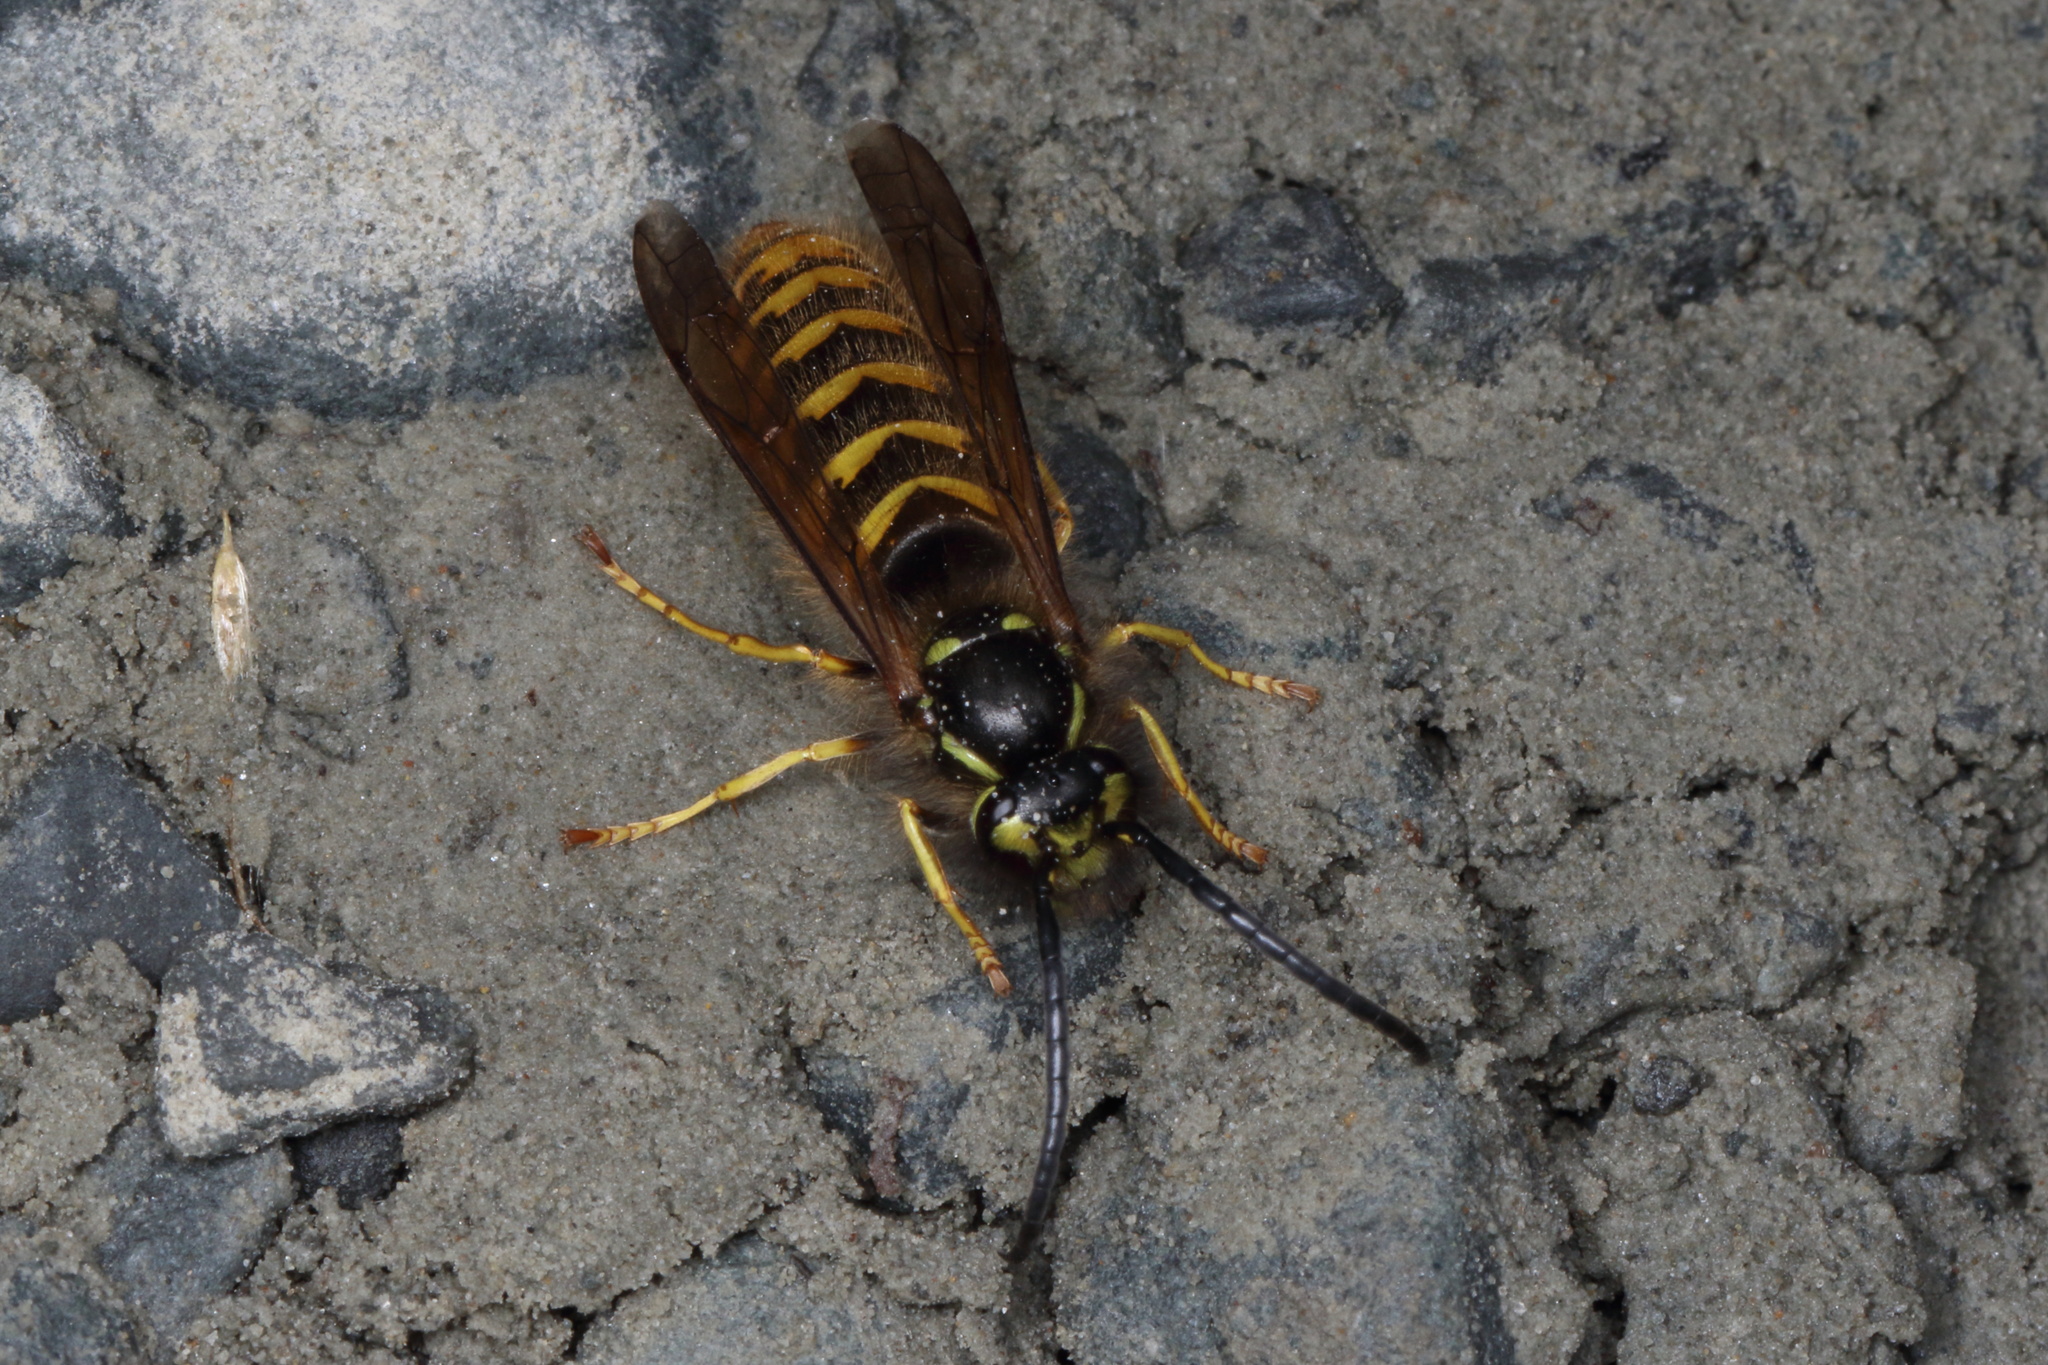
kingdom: Animalia
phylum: Arthropoda
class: Insecta
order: Hymenoptera
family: Vespidae
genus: Vespula
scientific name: Vespula vulgaris
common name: Common wasp
